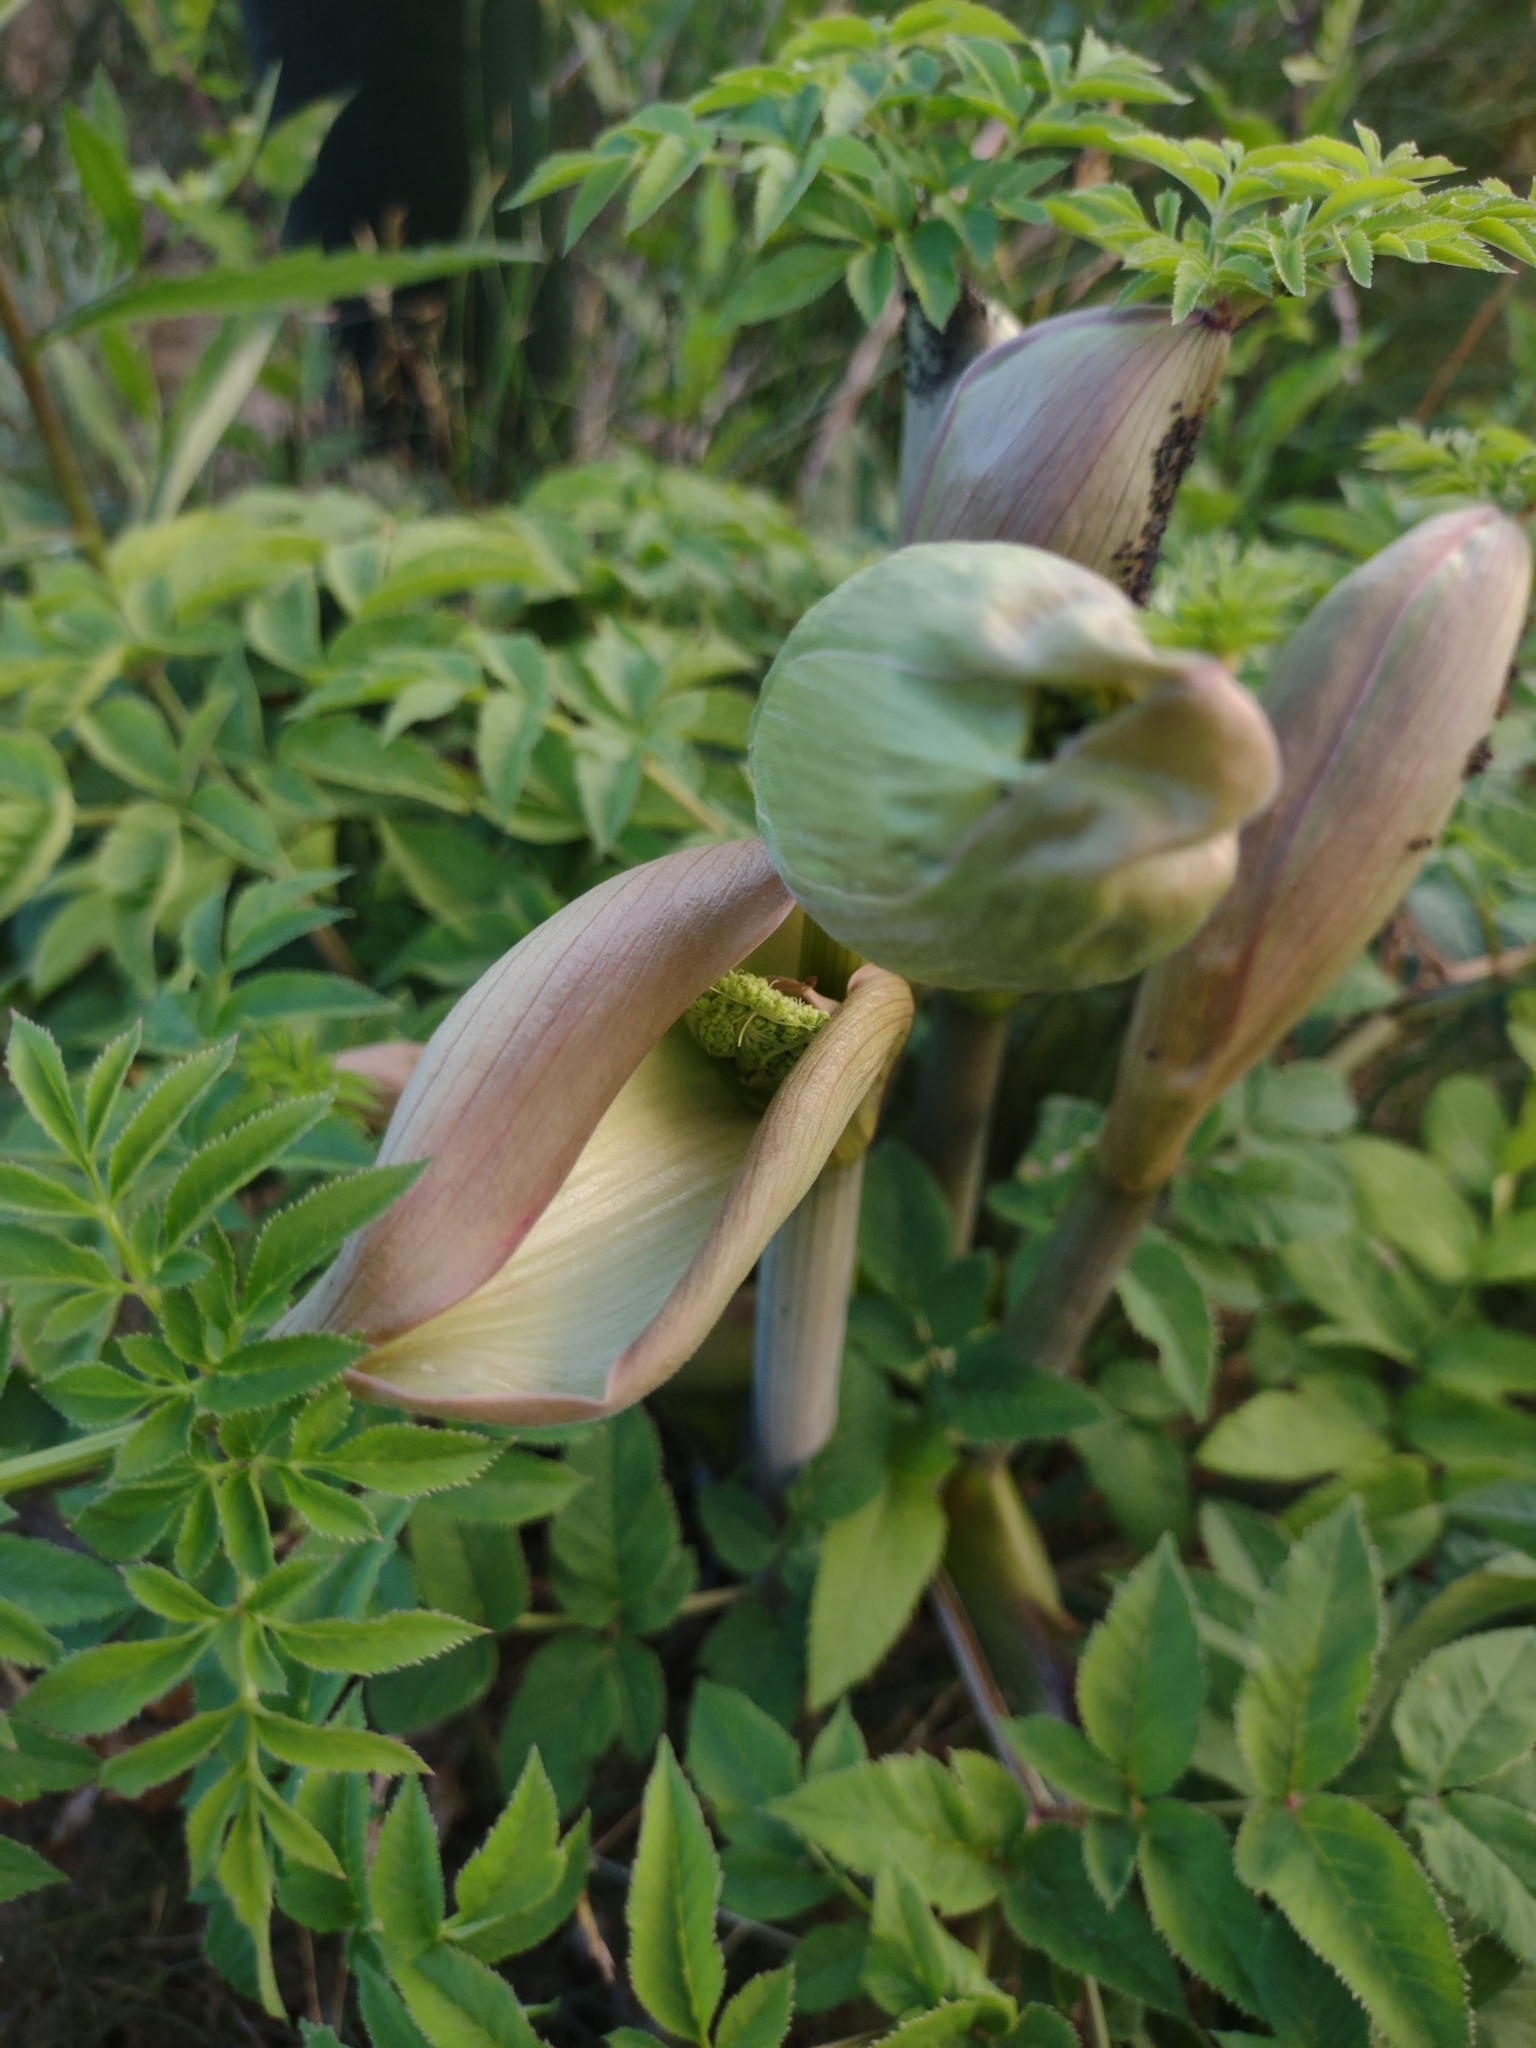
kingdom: Plantae
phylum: Tracheophyta
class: Magnoliopsida
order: Apiales
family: Apiaceae
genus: Angelica
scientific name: Angelica sylvestris
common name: Wild angelica
